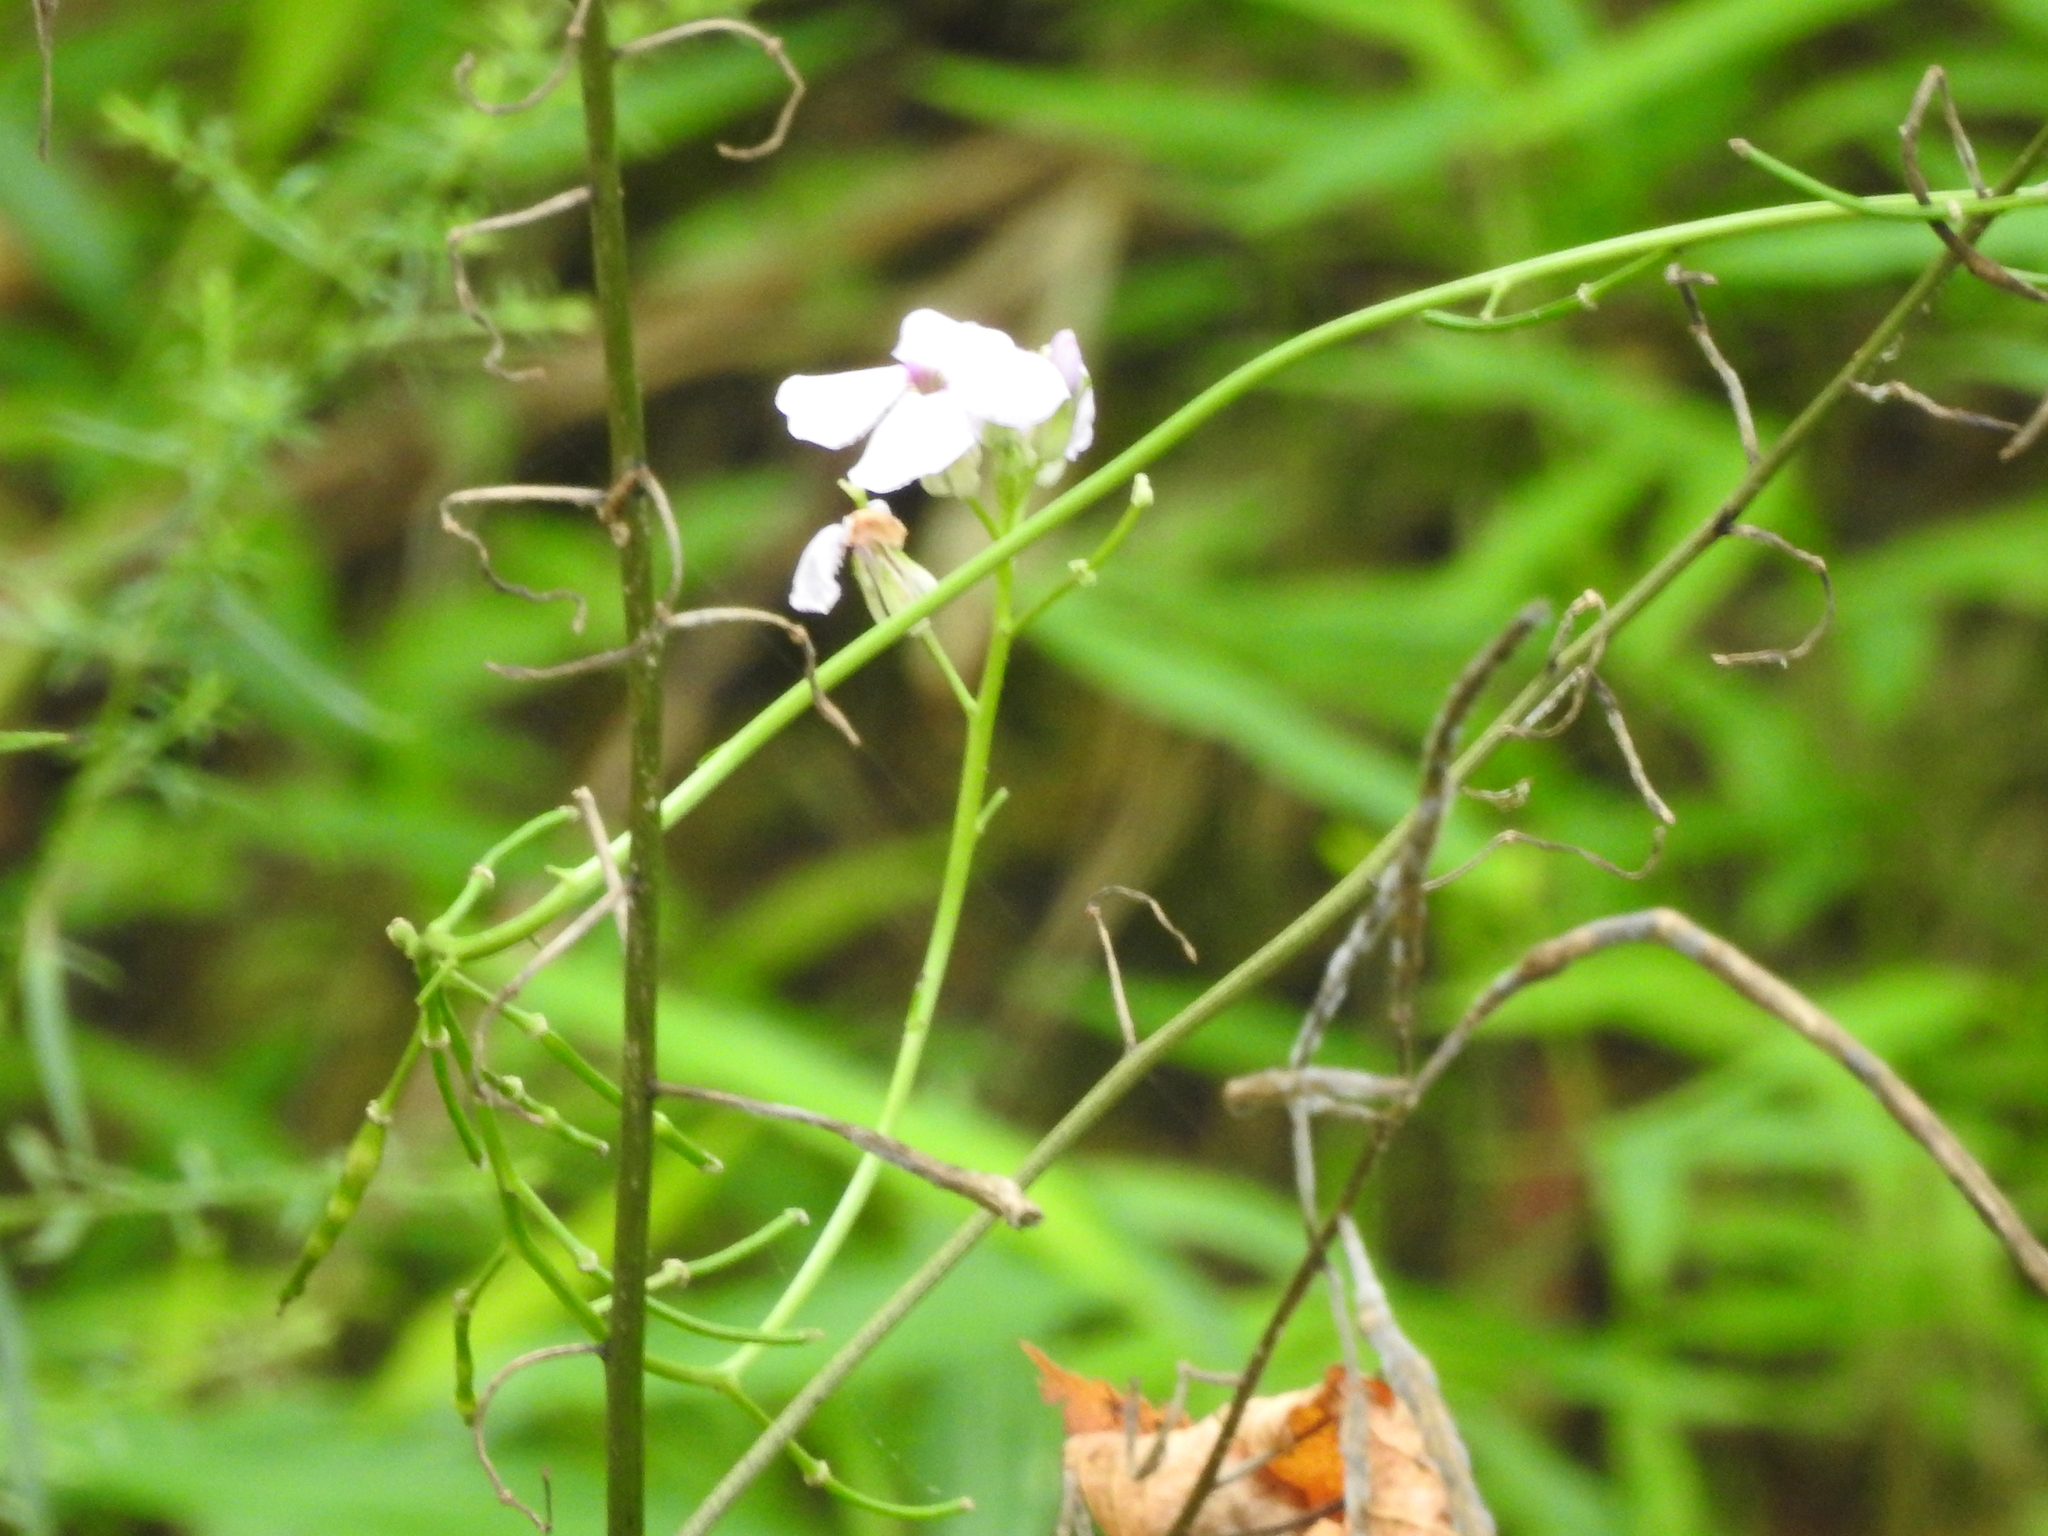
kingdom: Plantae
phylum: Tracheophyta
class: Magnoliopsida
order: Brassicales
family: Brassicaceae
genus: Hesperis
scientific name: Hesperis matronalis
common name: Dame's-violet
